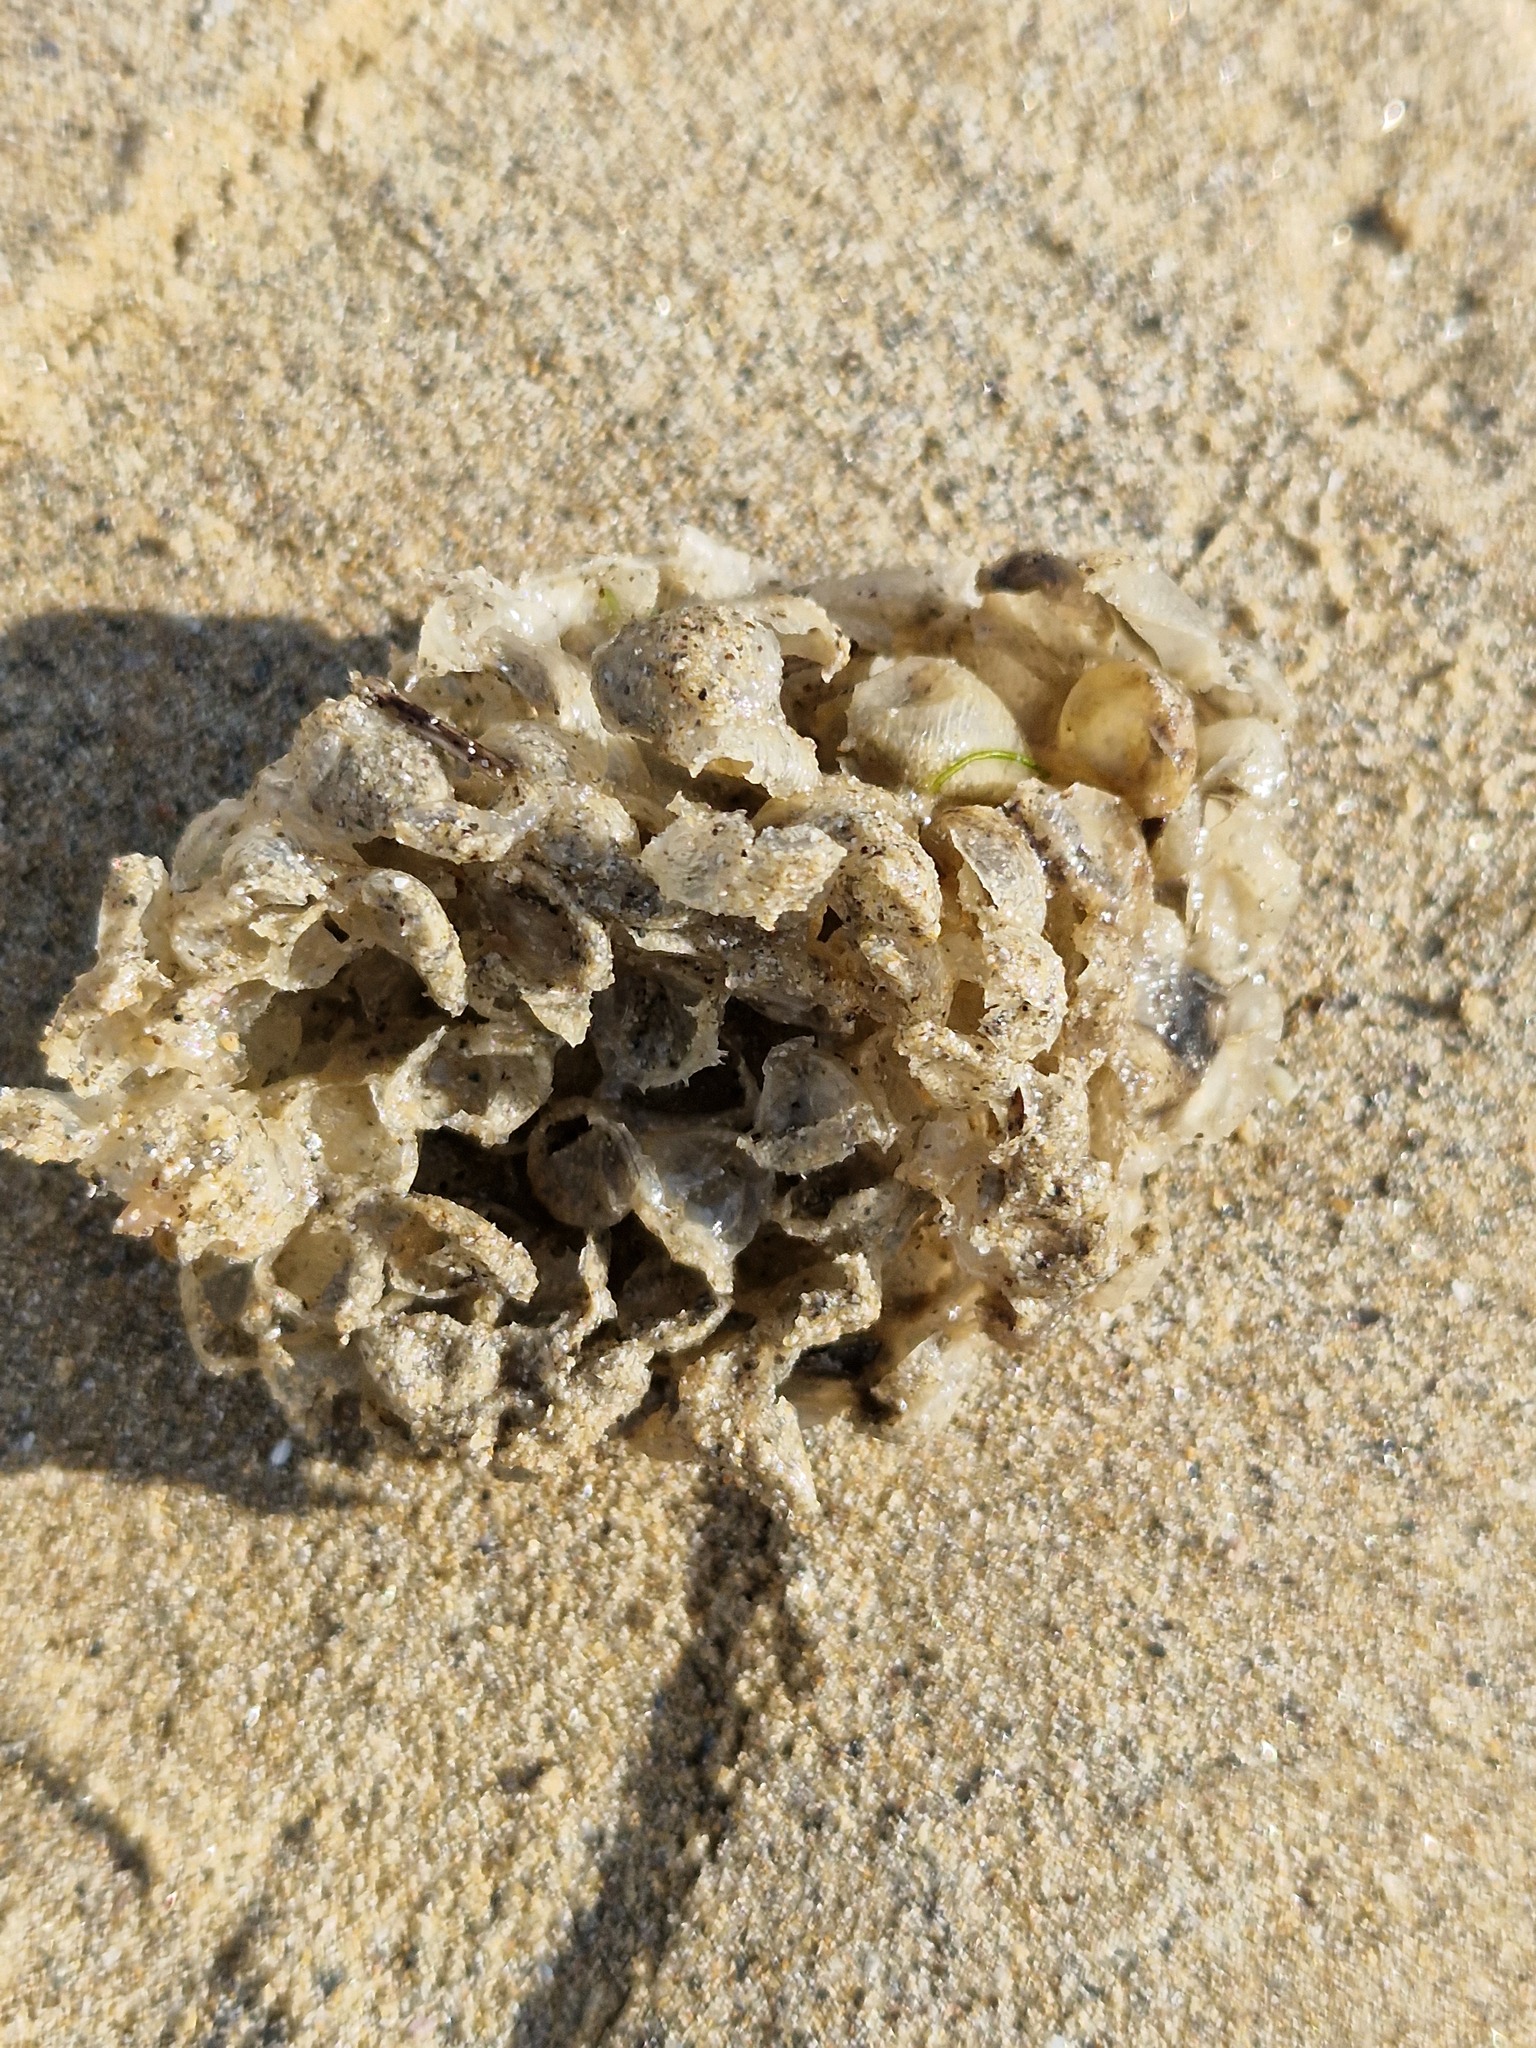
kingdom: Animalia
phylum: Mollusca
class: Gastropoda
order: Neogastropoda
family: Buccinidae
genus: Buccinum
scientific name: Buccinum undatum
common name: Common whelk
